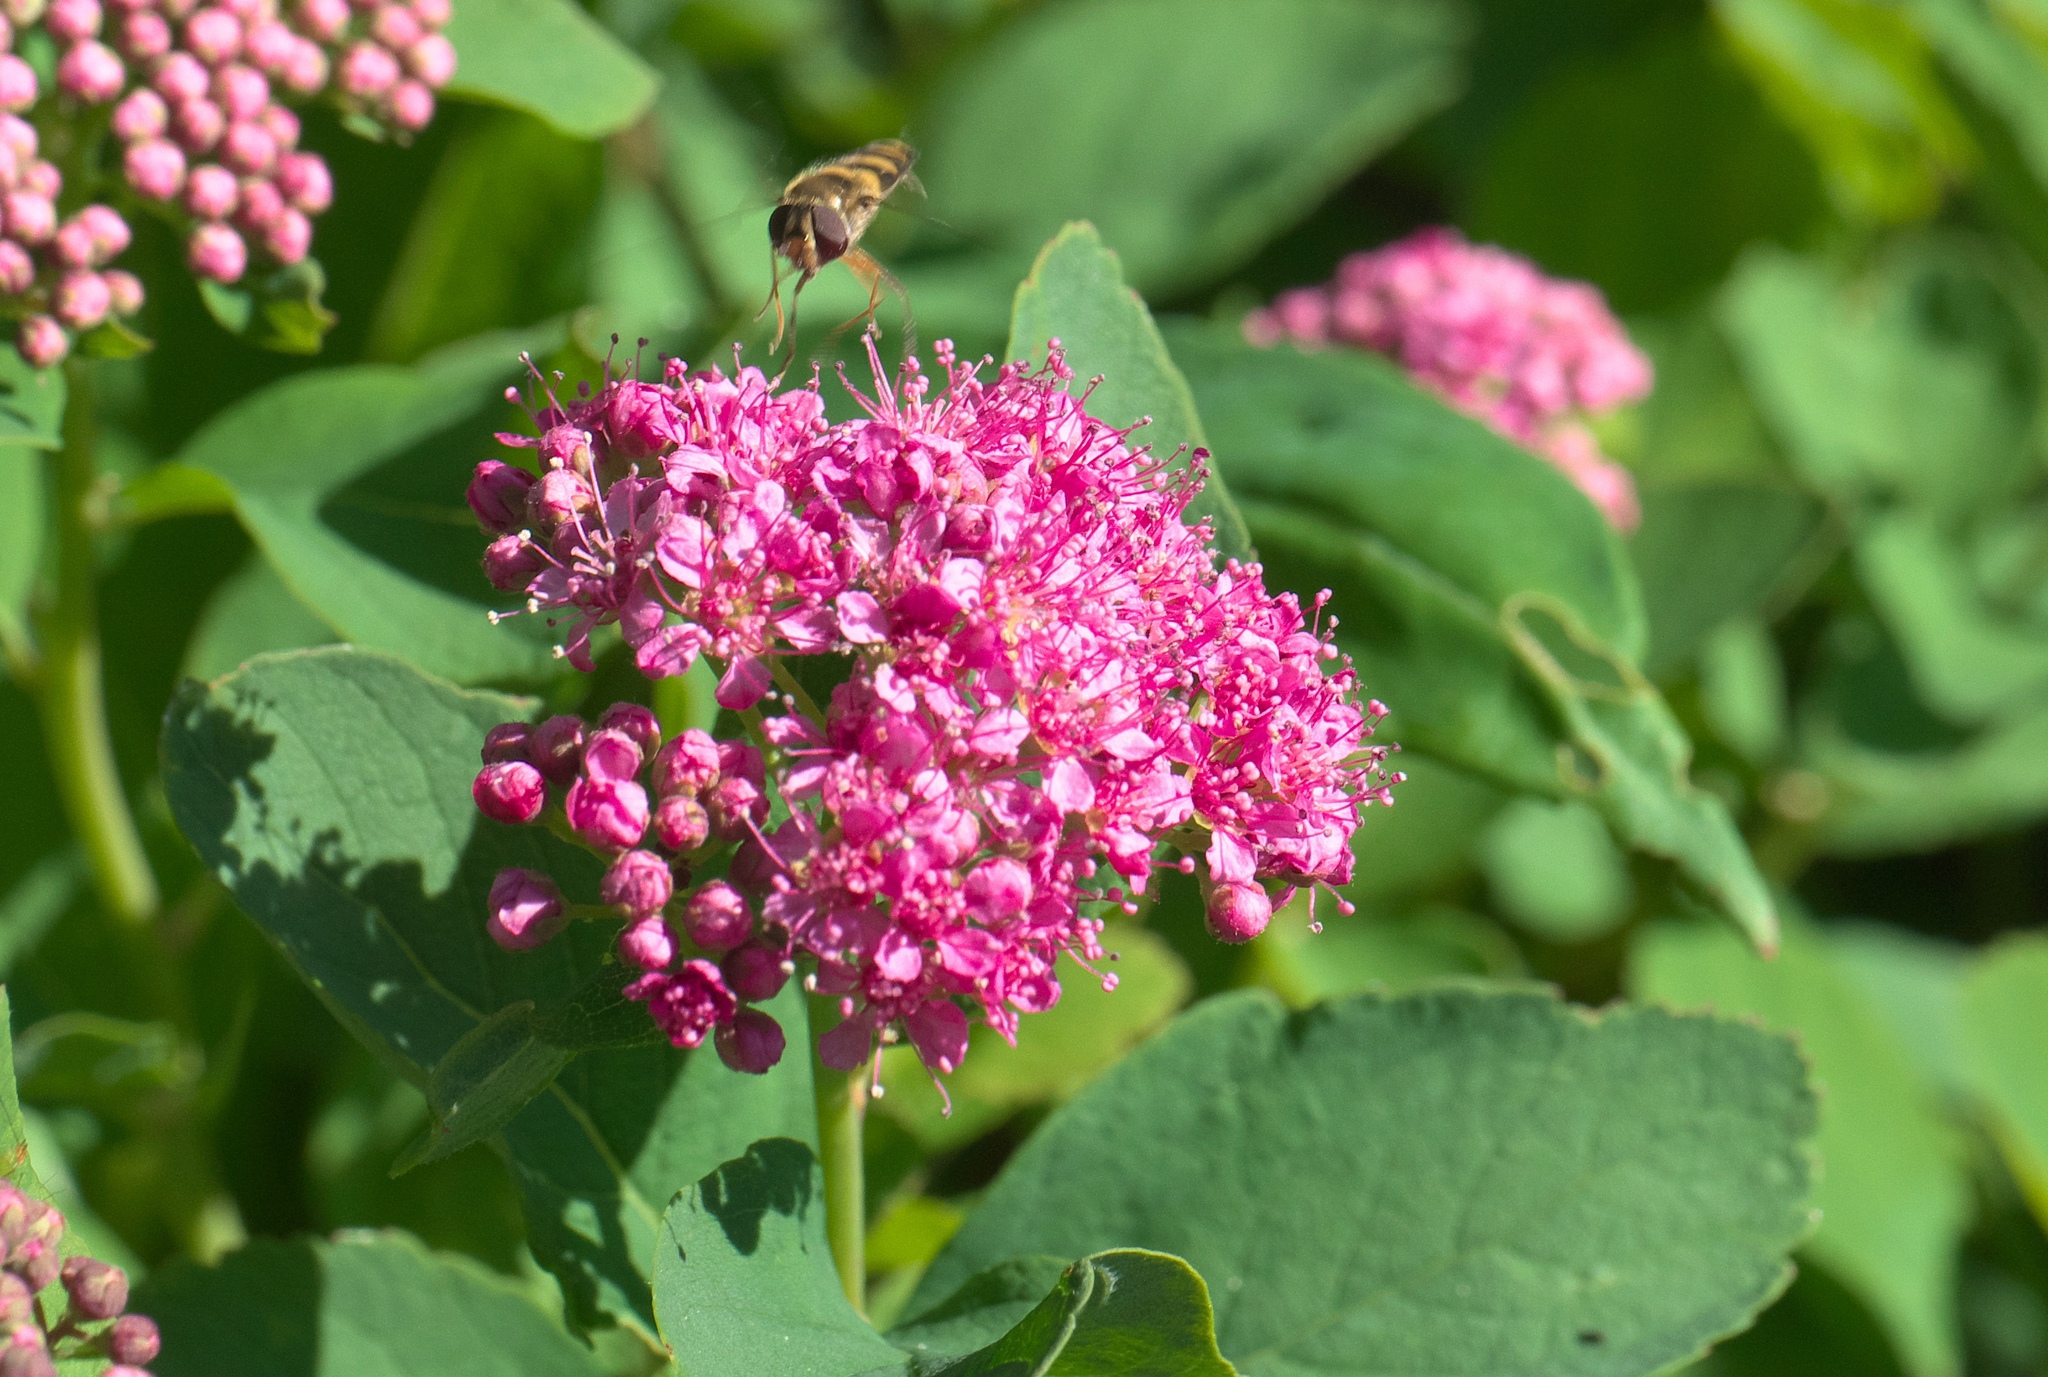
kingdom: Plantae
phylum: Tracheophyta
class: Magnoliopsida
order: Rosales
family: Rosaceae
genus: Spiraea
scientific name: Spiraea splendens
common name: Subalpine meadowsweet
